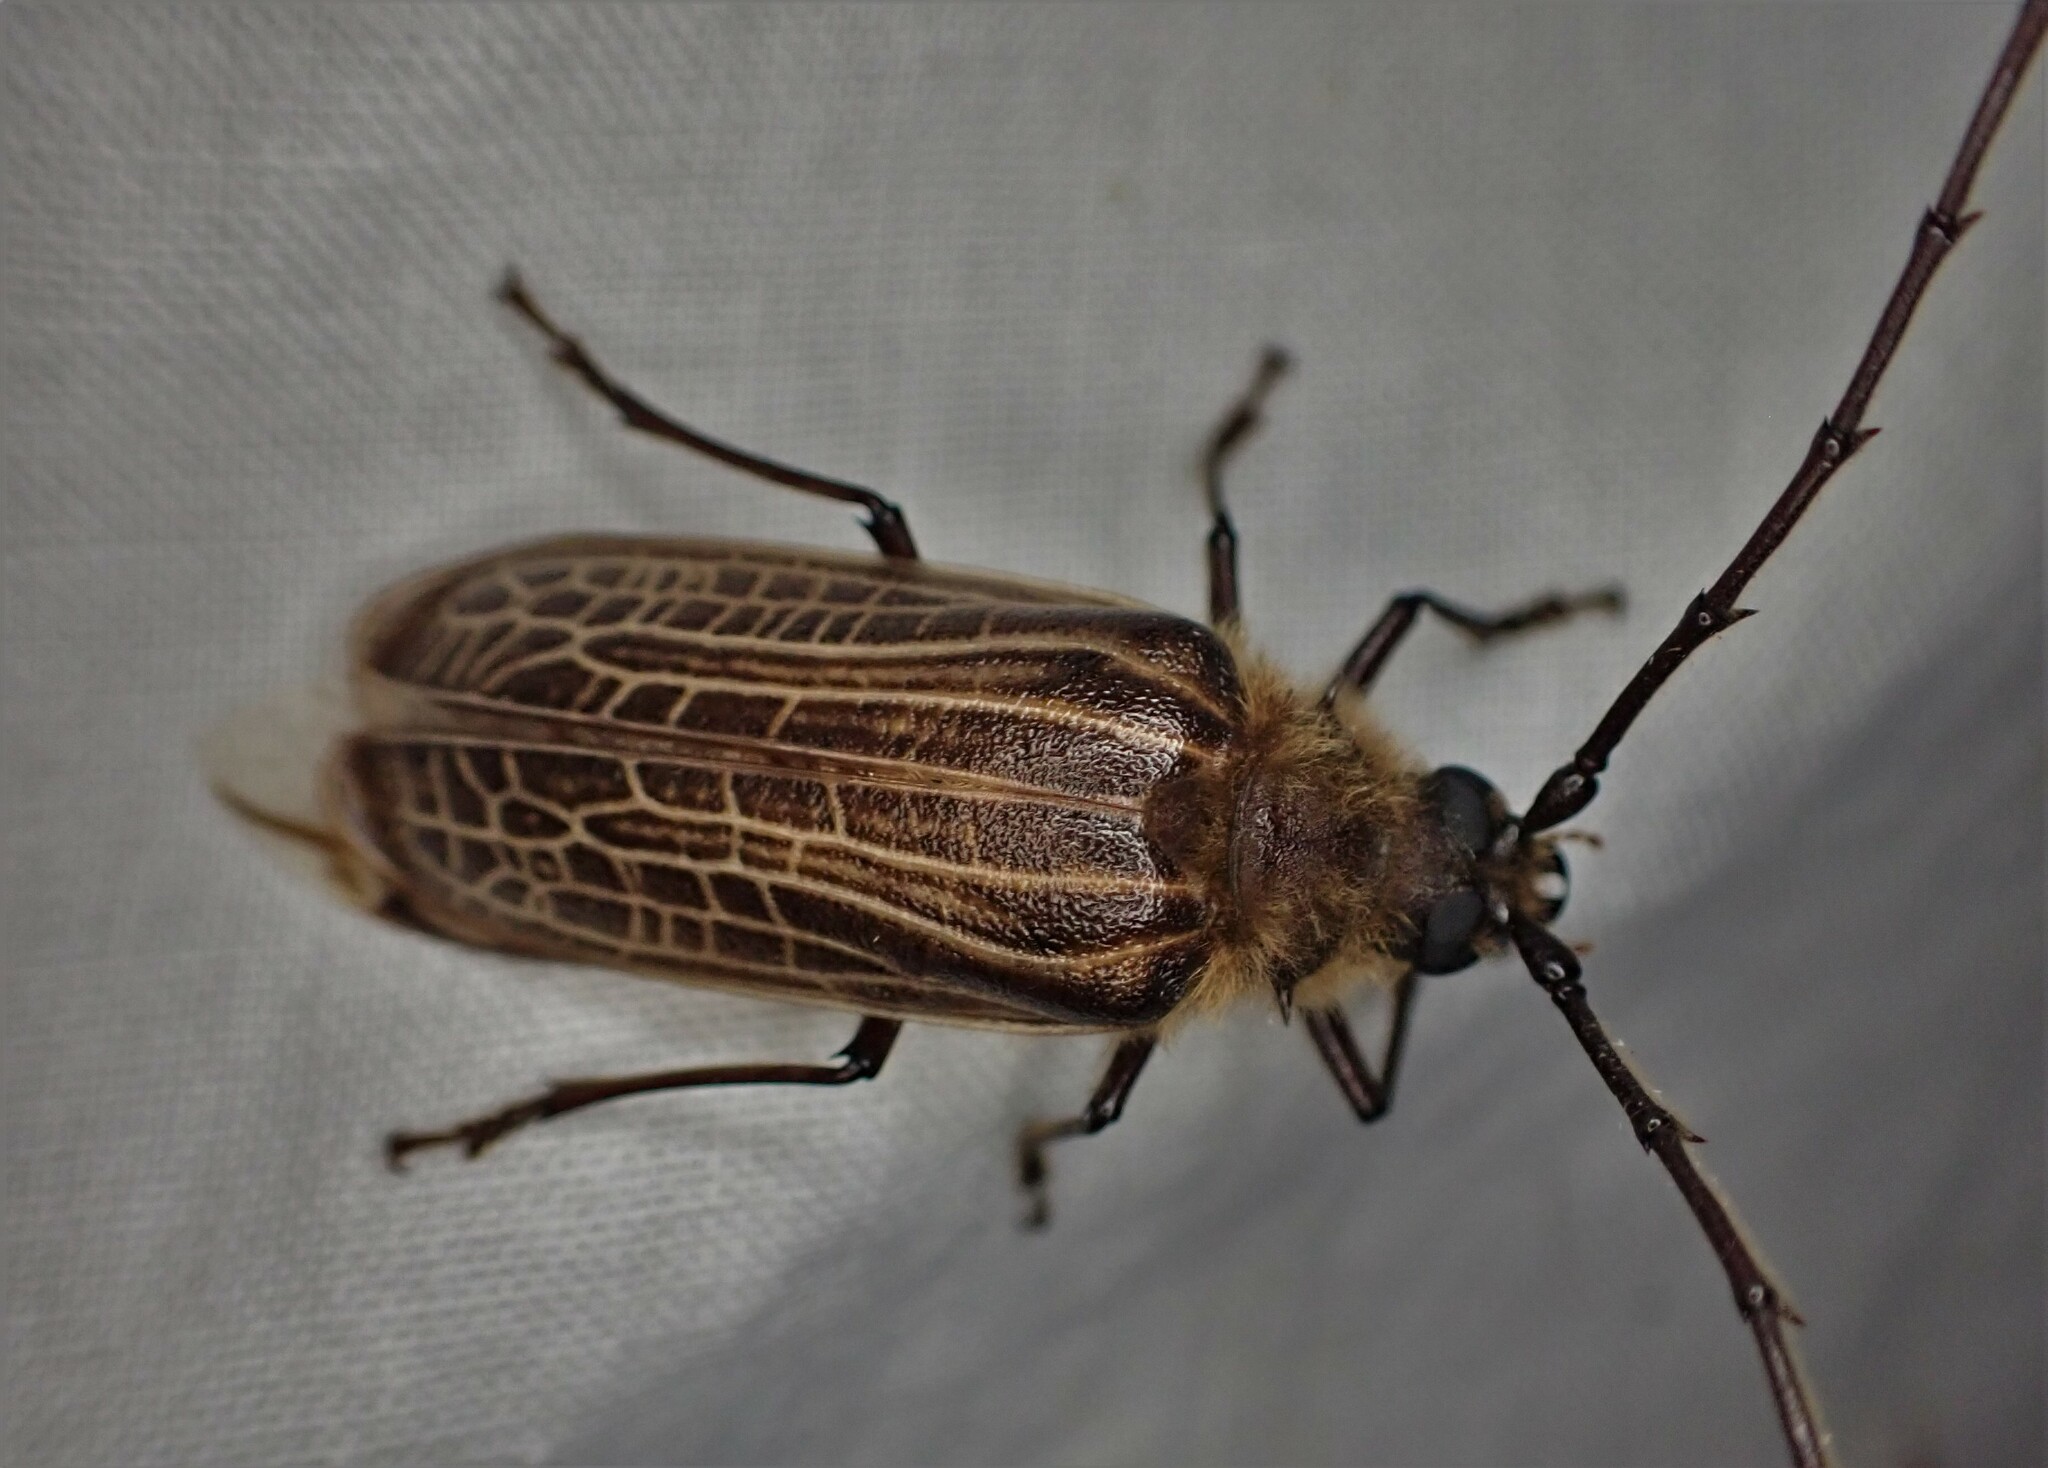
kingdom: Animalia
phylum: Arthropoda
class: Insecta
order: Coleoptera
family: Cerambycidae
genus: Prionoplus
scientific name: Prionoplus reticularis
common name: Huhu beetle
